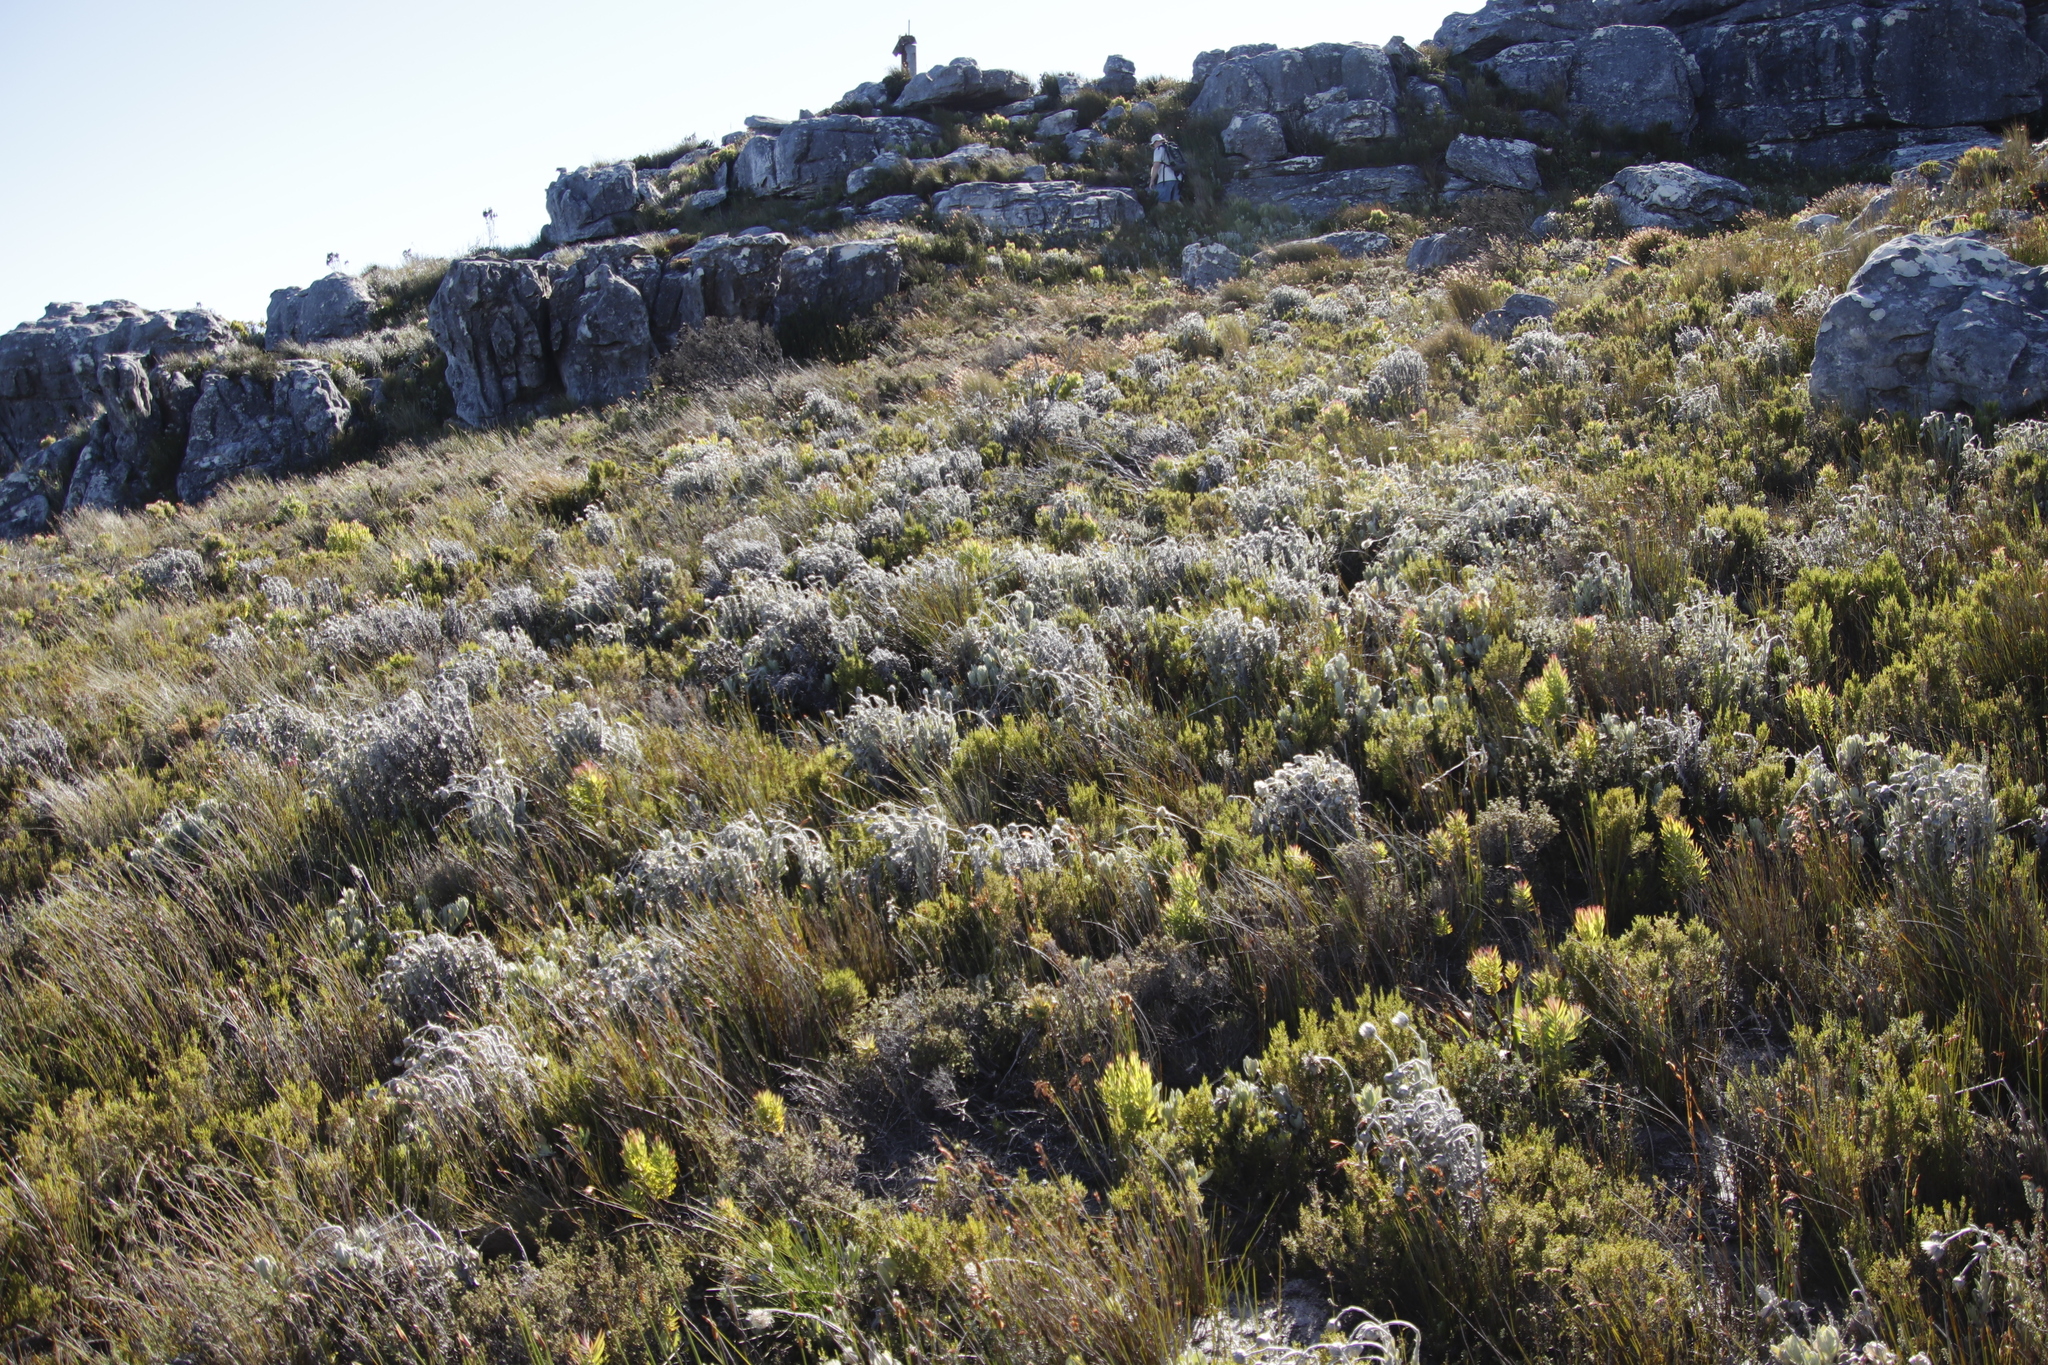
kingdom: Plantae
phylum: Tracheophyta
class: Magnoliopsida
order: Asterales
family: Asteraceae
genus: Syncarpha
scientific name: Syncarpha vestita
